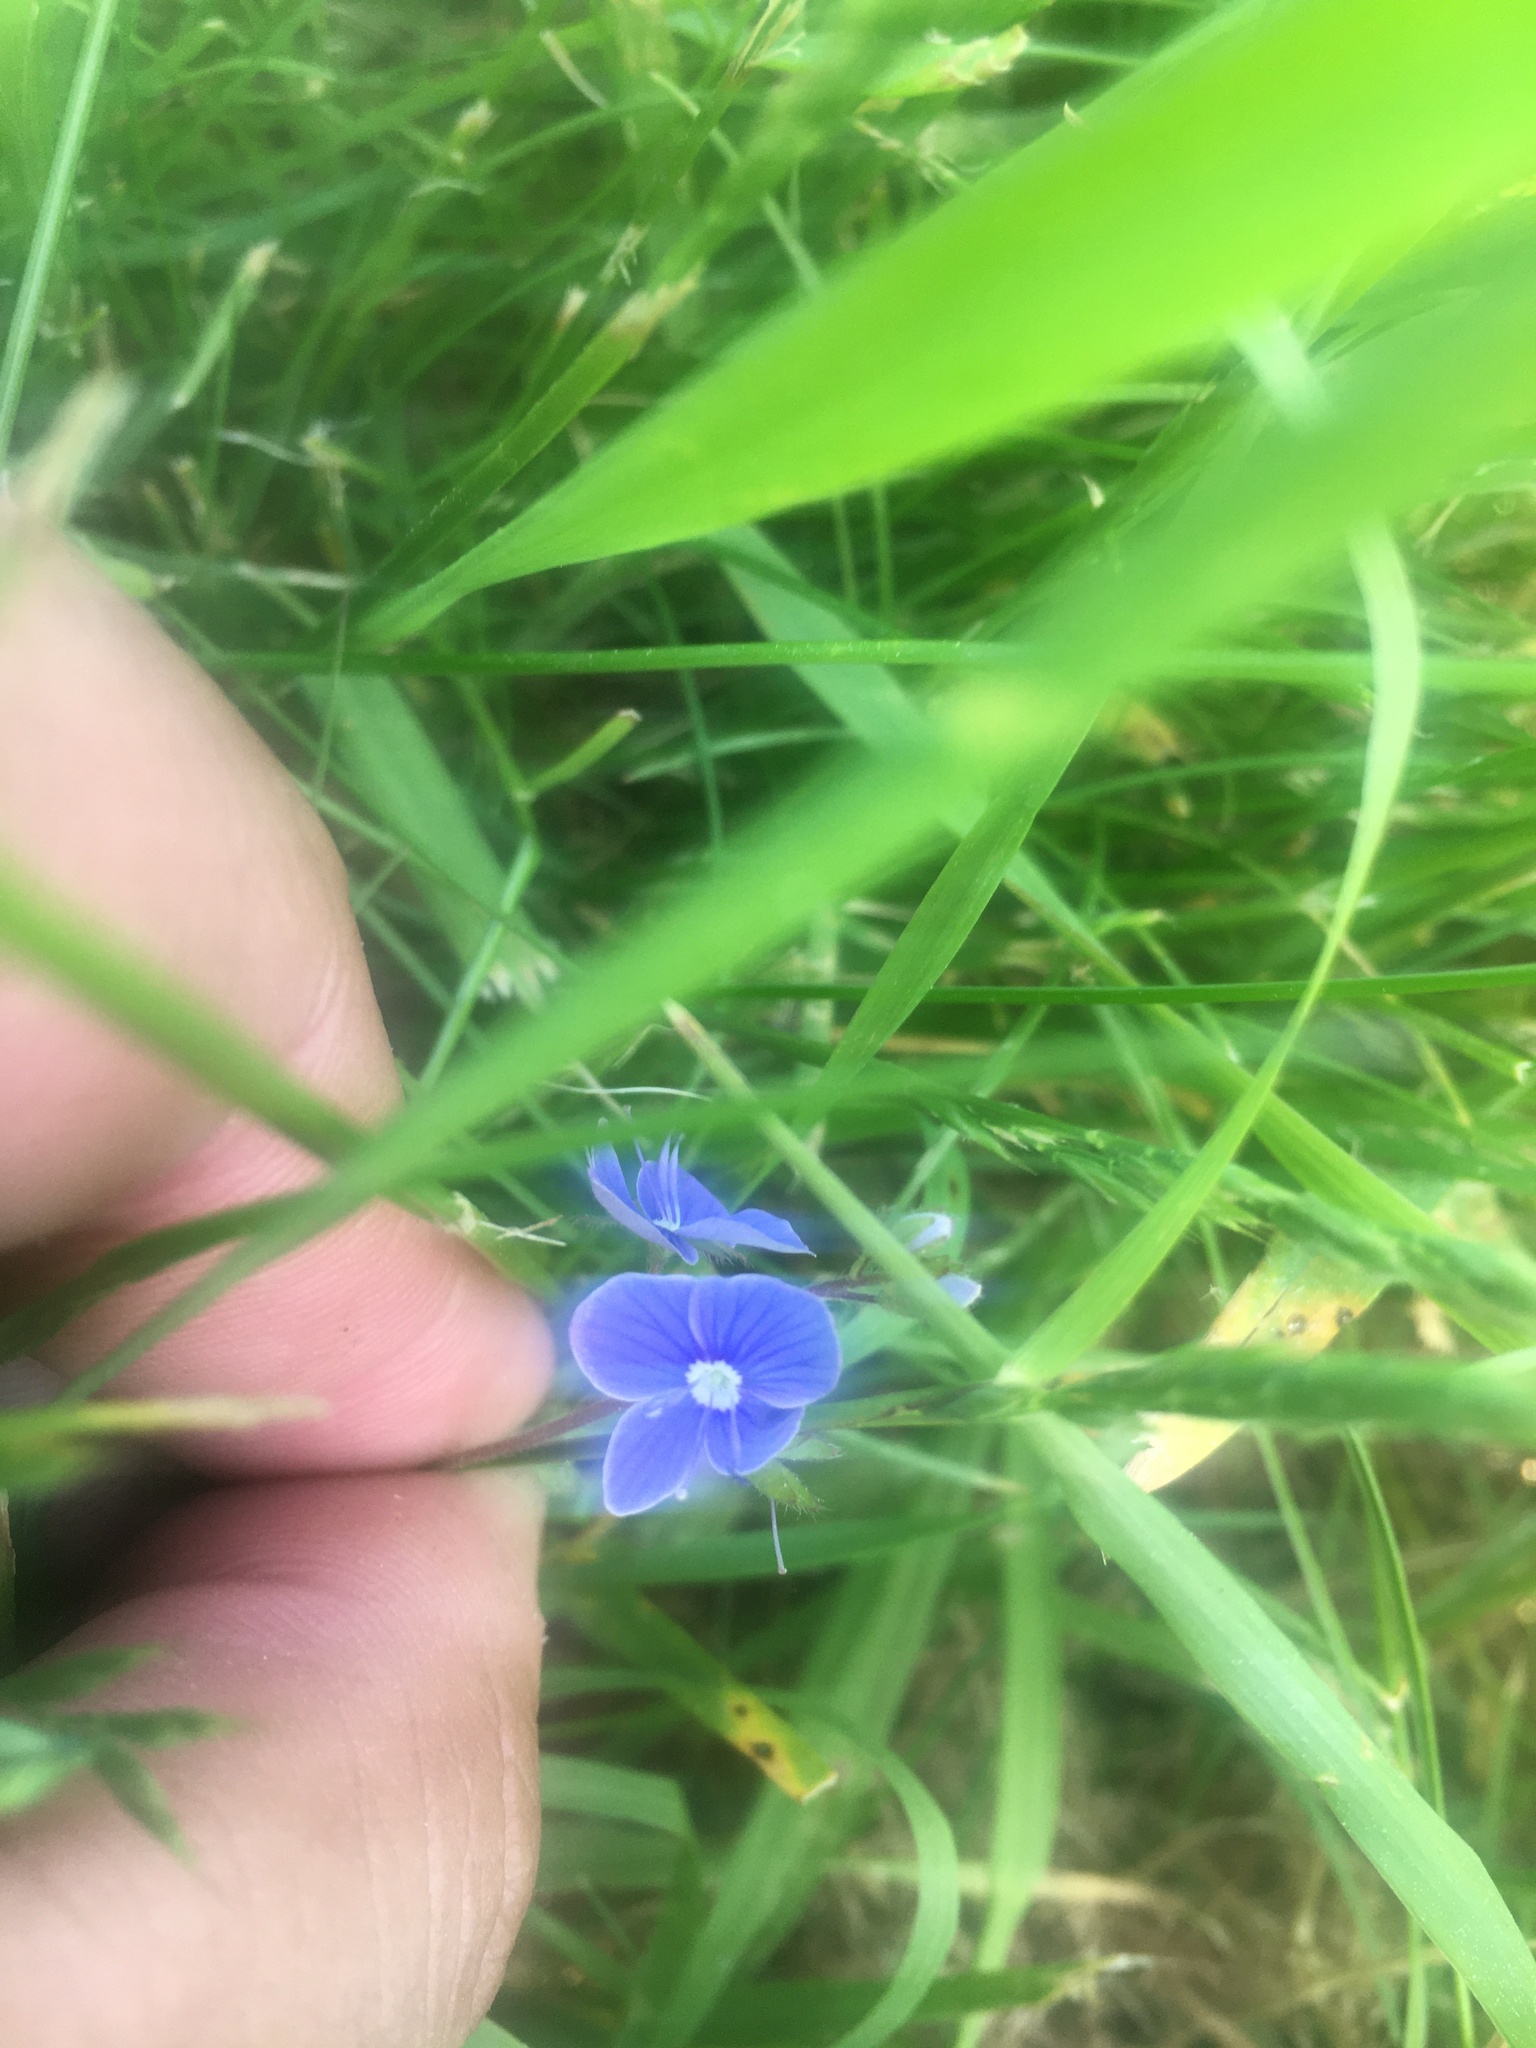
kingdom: Plantae
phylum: Tracheophyta
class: Magnoliopsida
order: Lamiales
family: Plantaginaceae
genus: Veronica
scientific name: Veronica chamaedrys
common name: Germander speedwell
